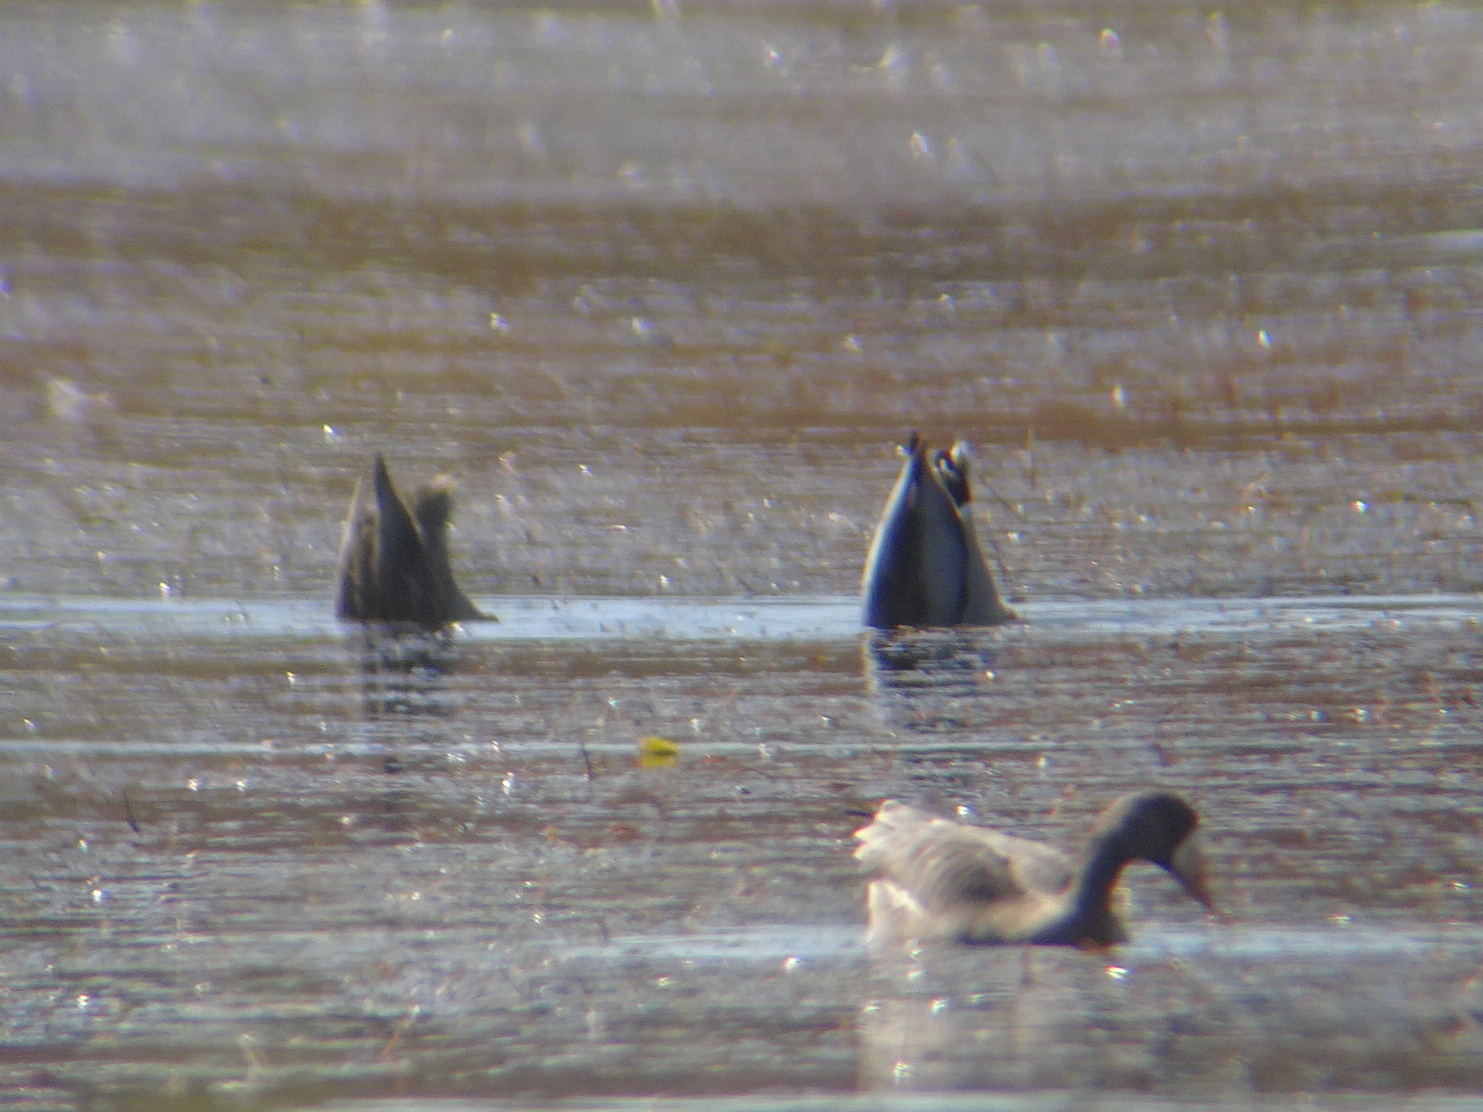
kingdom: Animalia
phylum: Chordata
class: Aves
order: Anseriformes
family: Anatidae
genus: Anas
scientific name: Anas platyrhynchos
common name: Mallard
